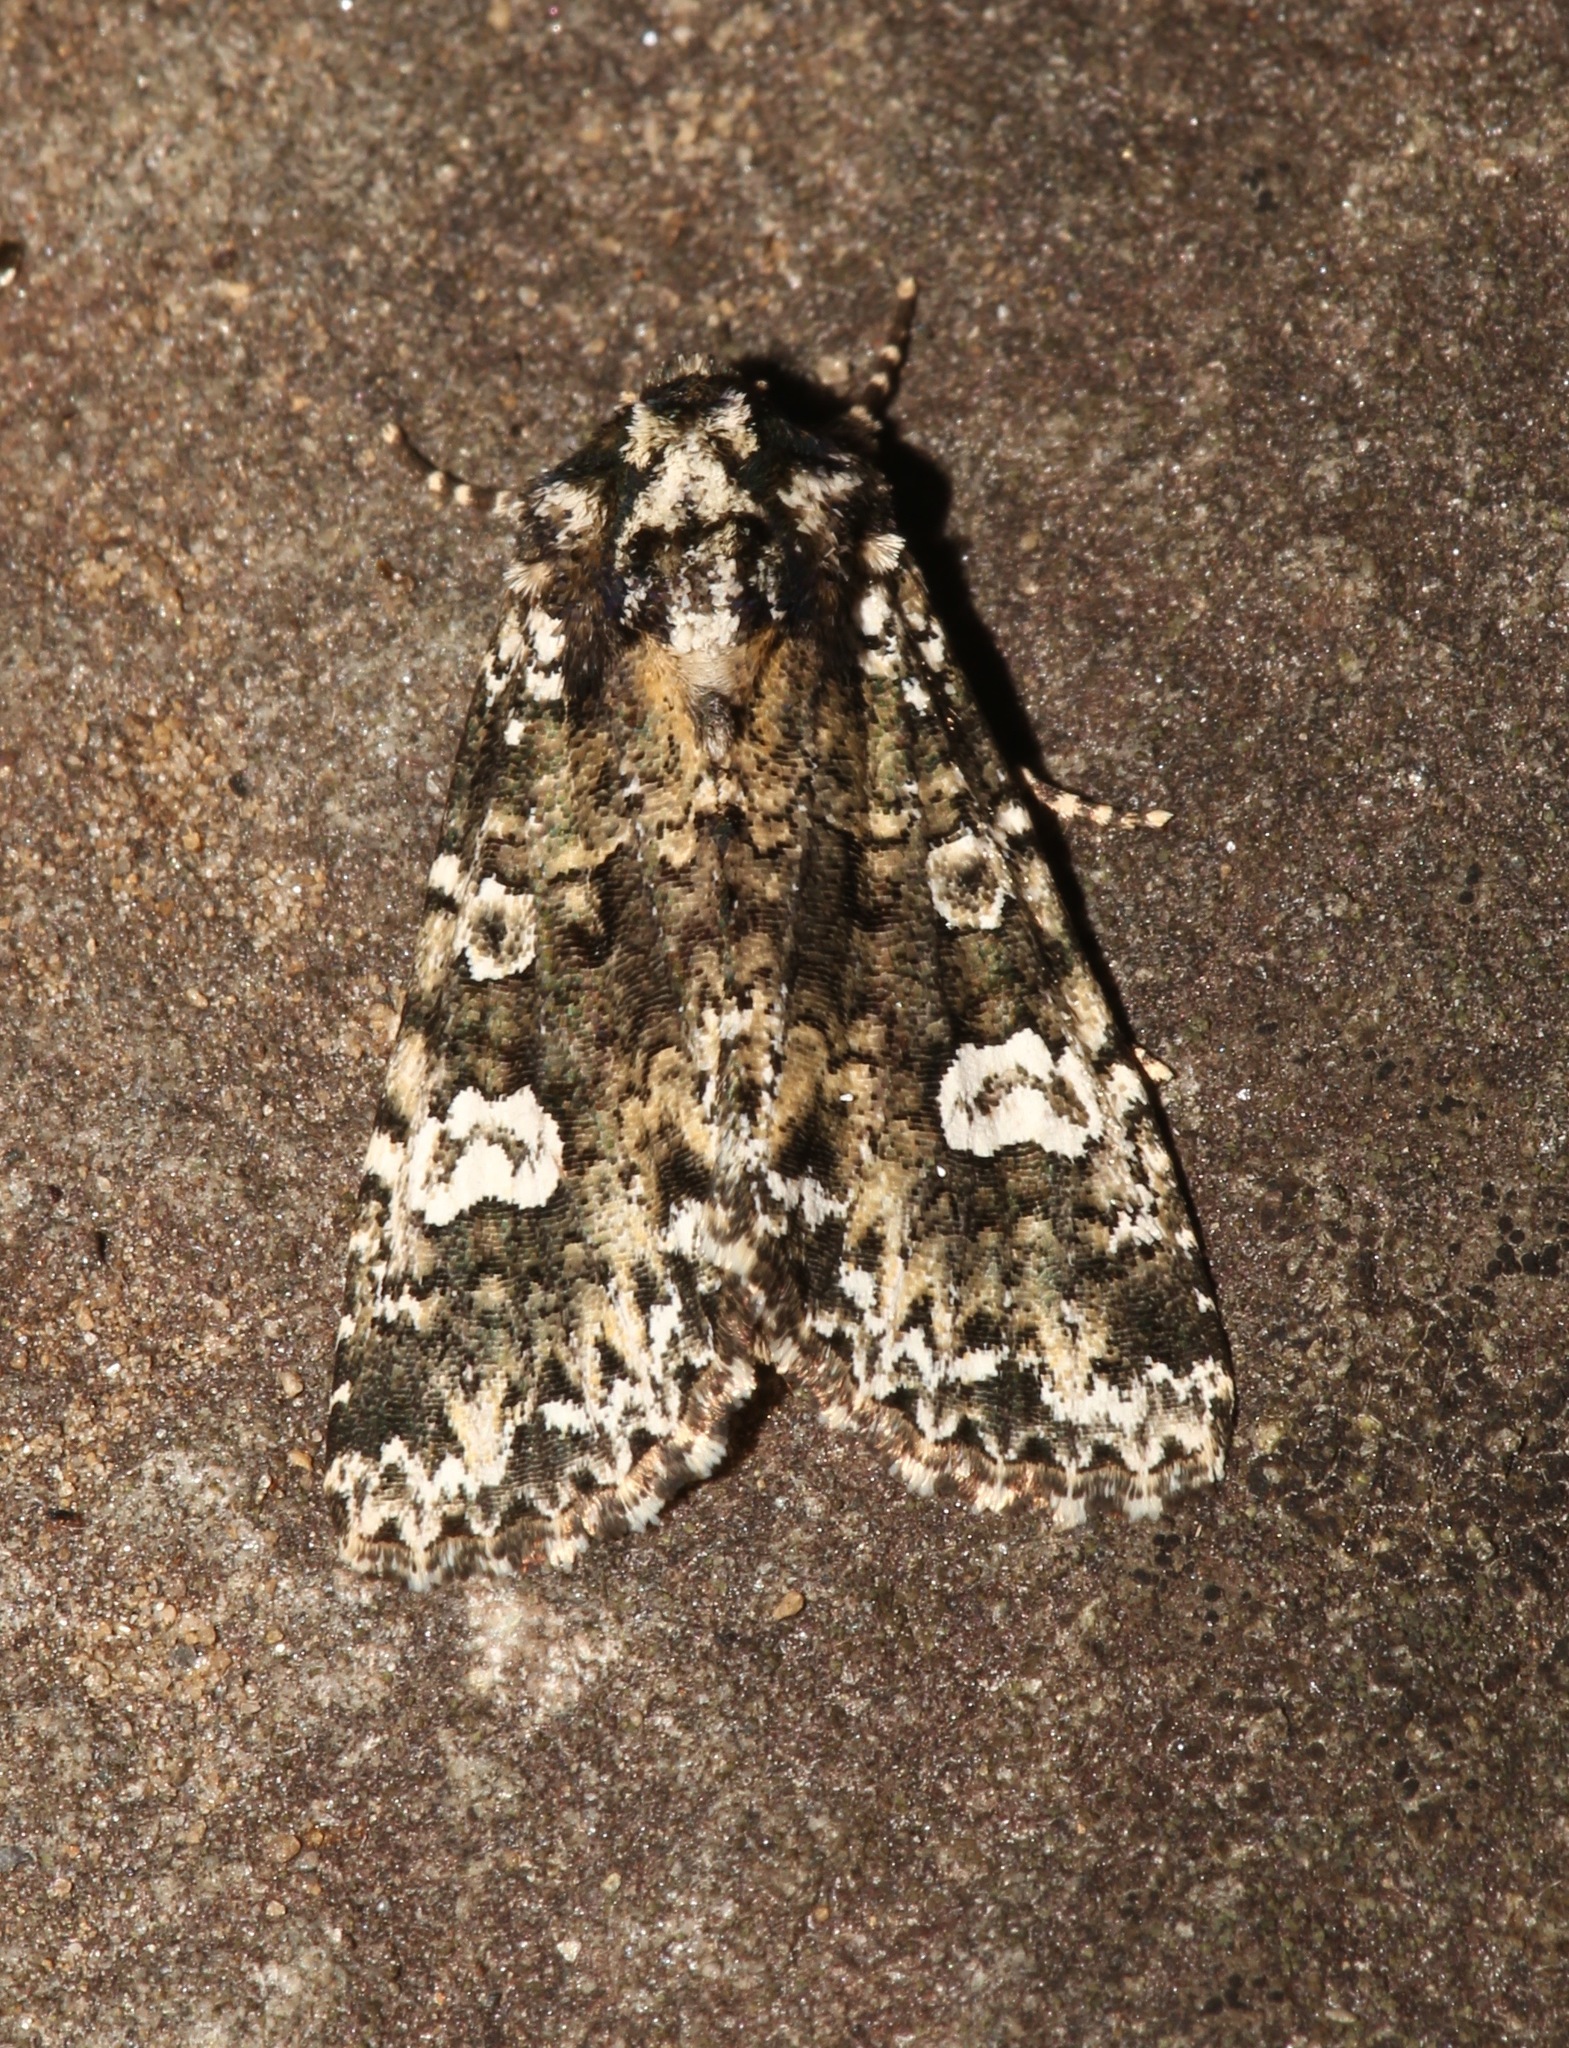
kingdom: Animalia
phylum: Arthropoda
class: Insecta
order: Lepidoptera
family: Noctuidae
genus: Melanchra
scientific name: Melanchra adjuncta
